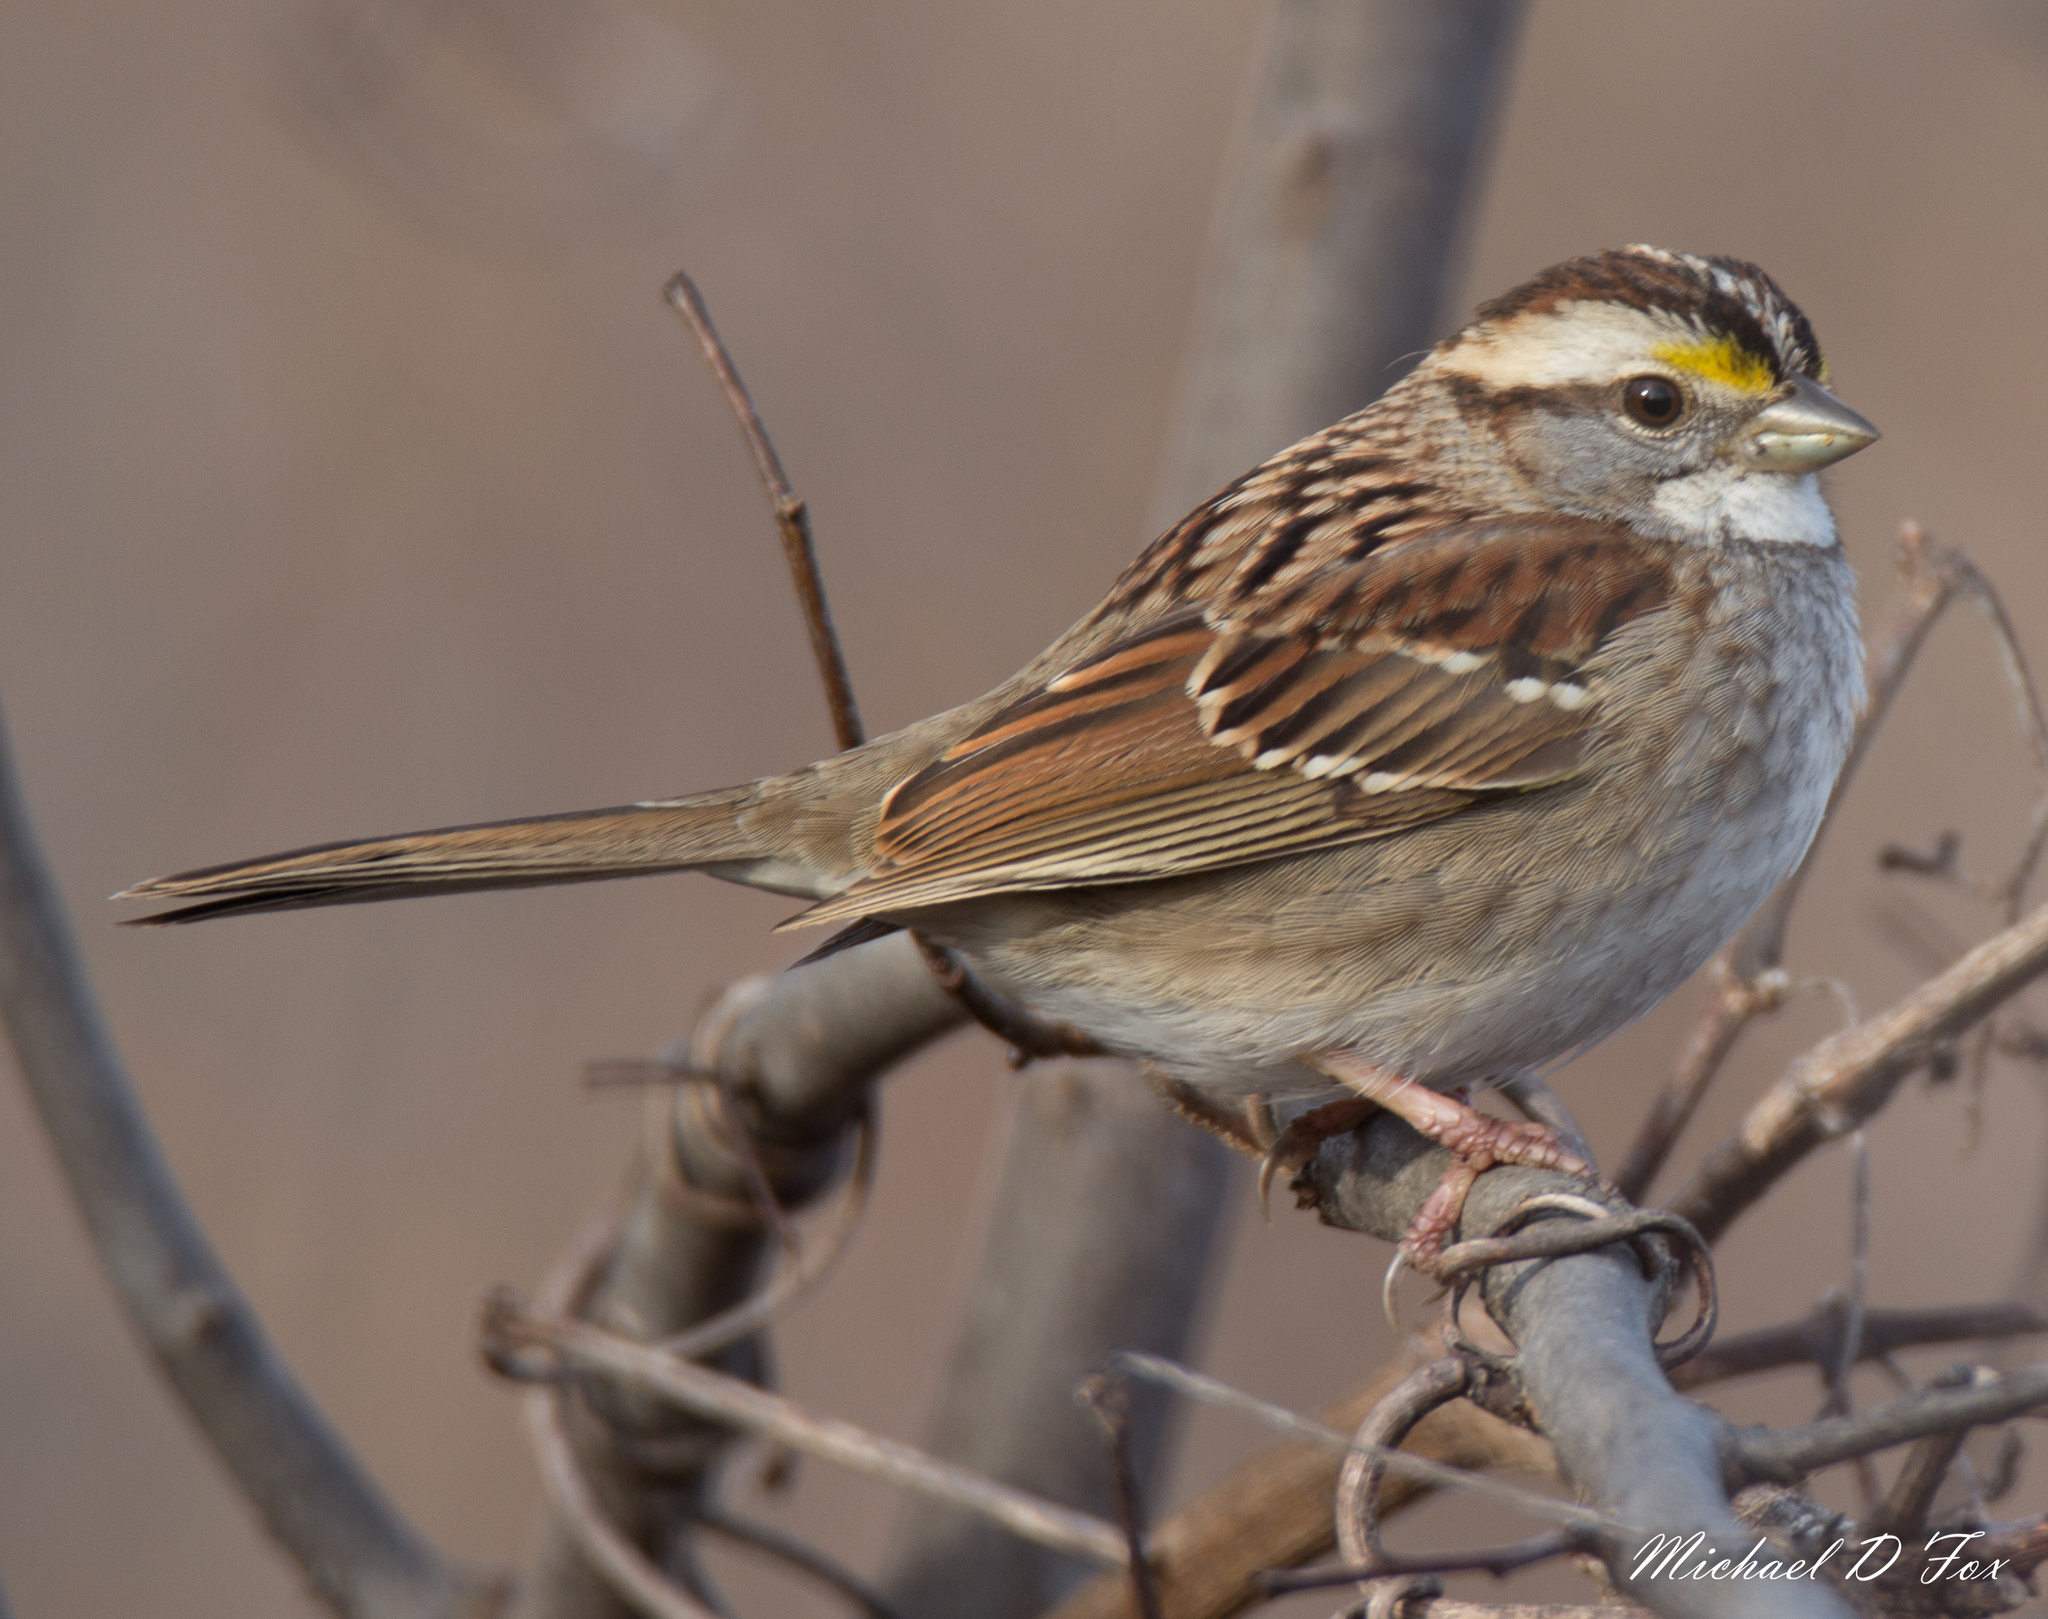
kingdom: Animalia
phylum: Chordata
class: Aves
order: Passeriformes
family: Passerellidae
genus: Zonotrichia
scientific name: Zonotrichia albicollis
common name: White-throated sparrow
